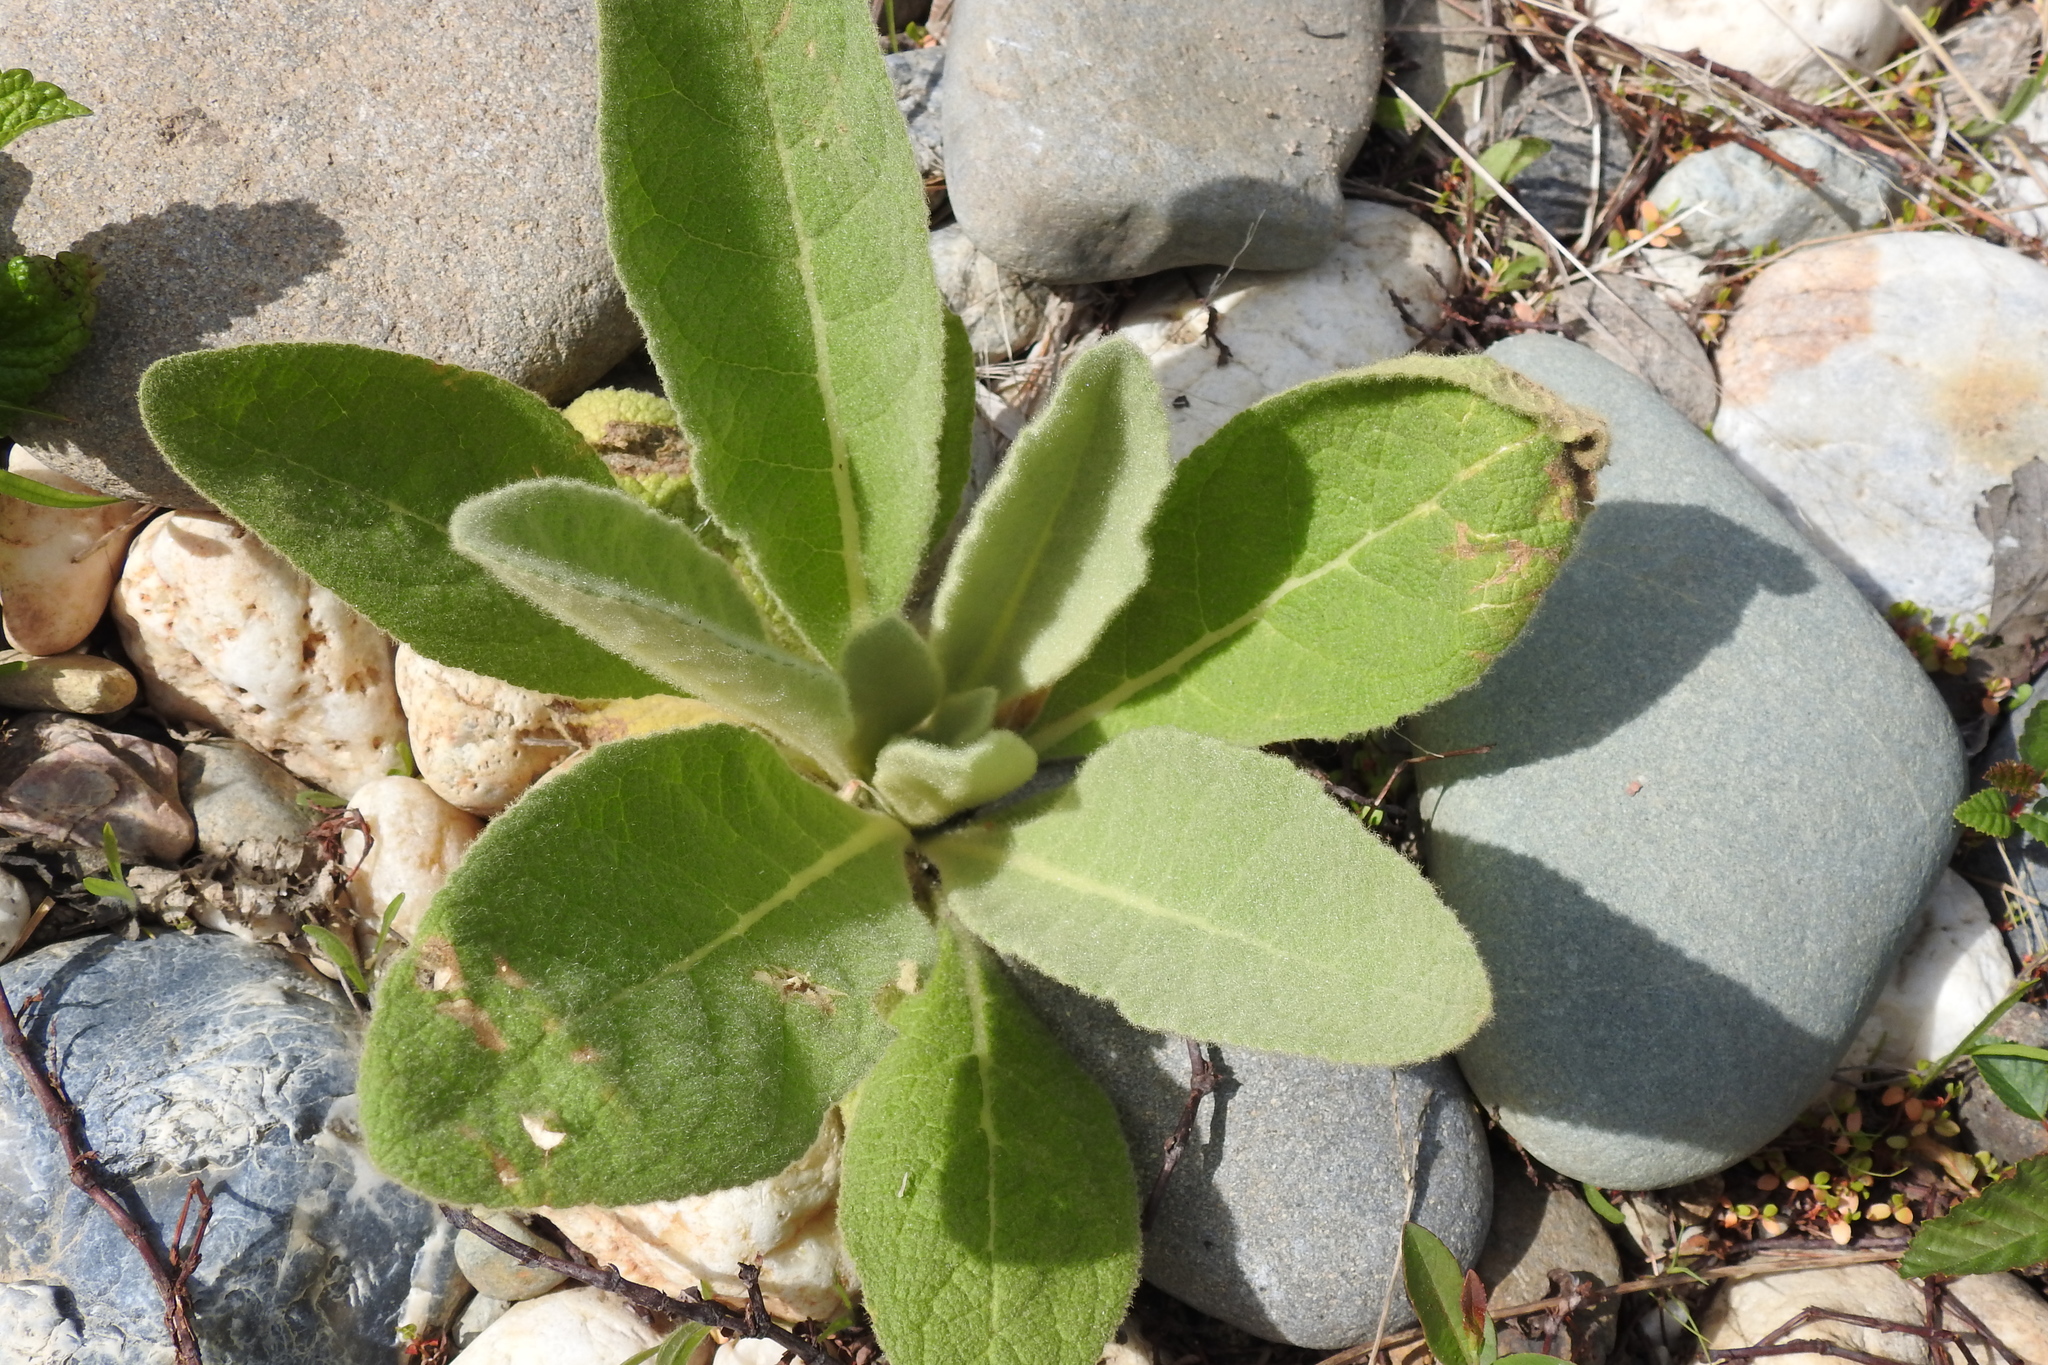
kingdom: Plantae
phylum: Tracheophyta
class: Magnoliopsida
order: Lamiales
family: Scrophulariaceae
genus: Verbascum
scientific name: Verbascum thapsus
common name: Common mullein
